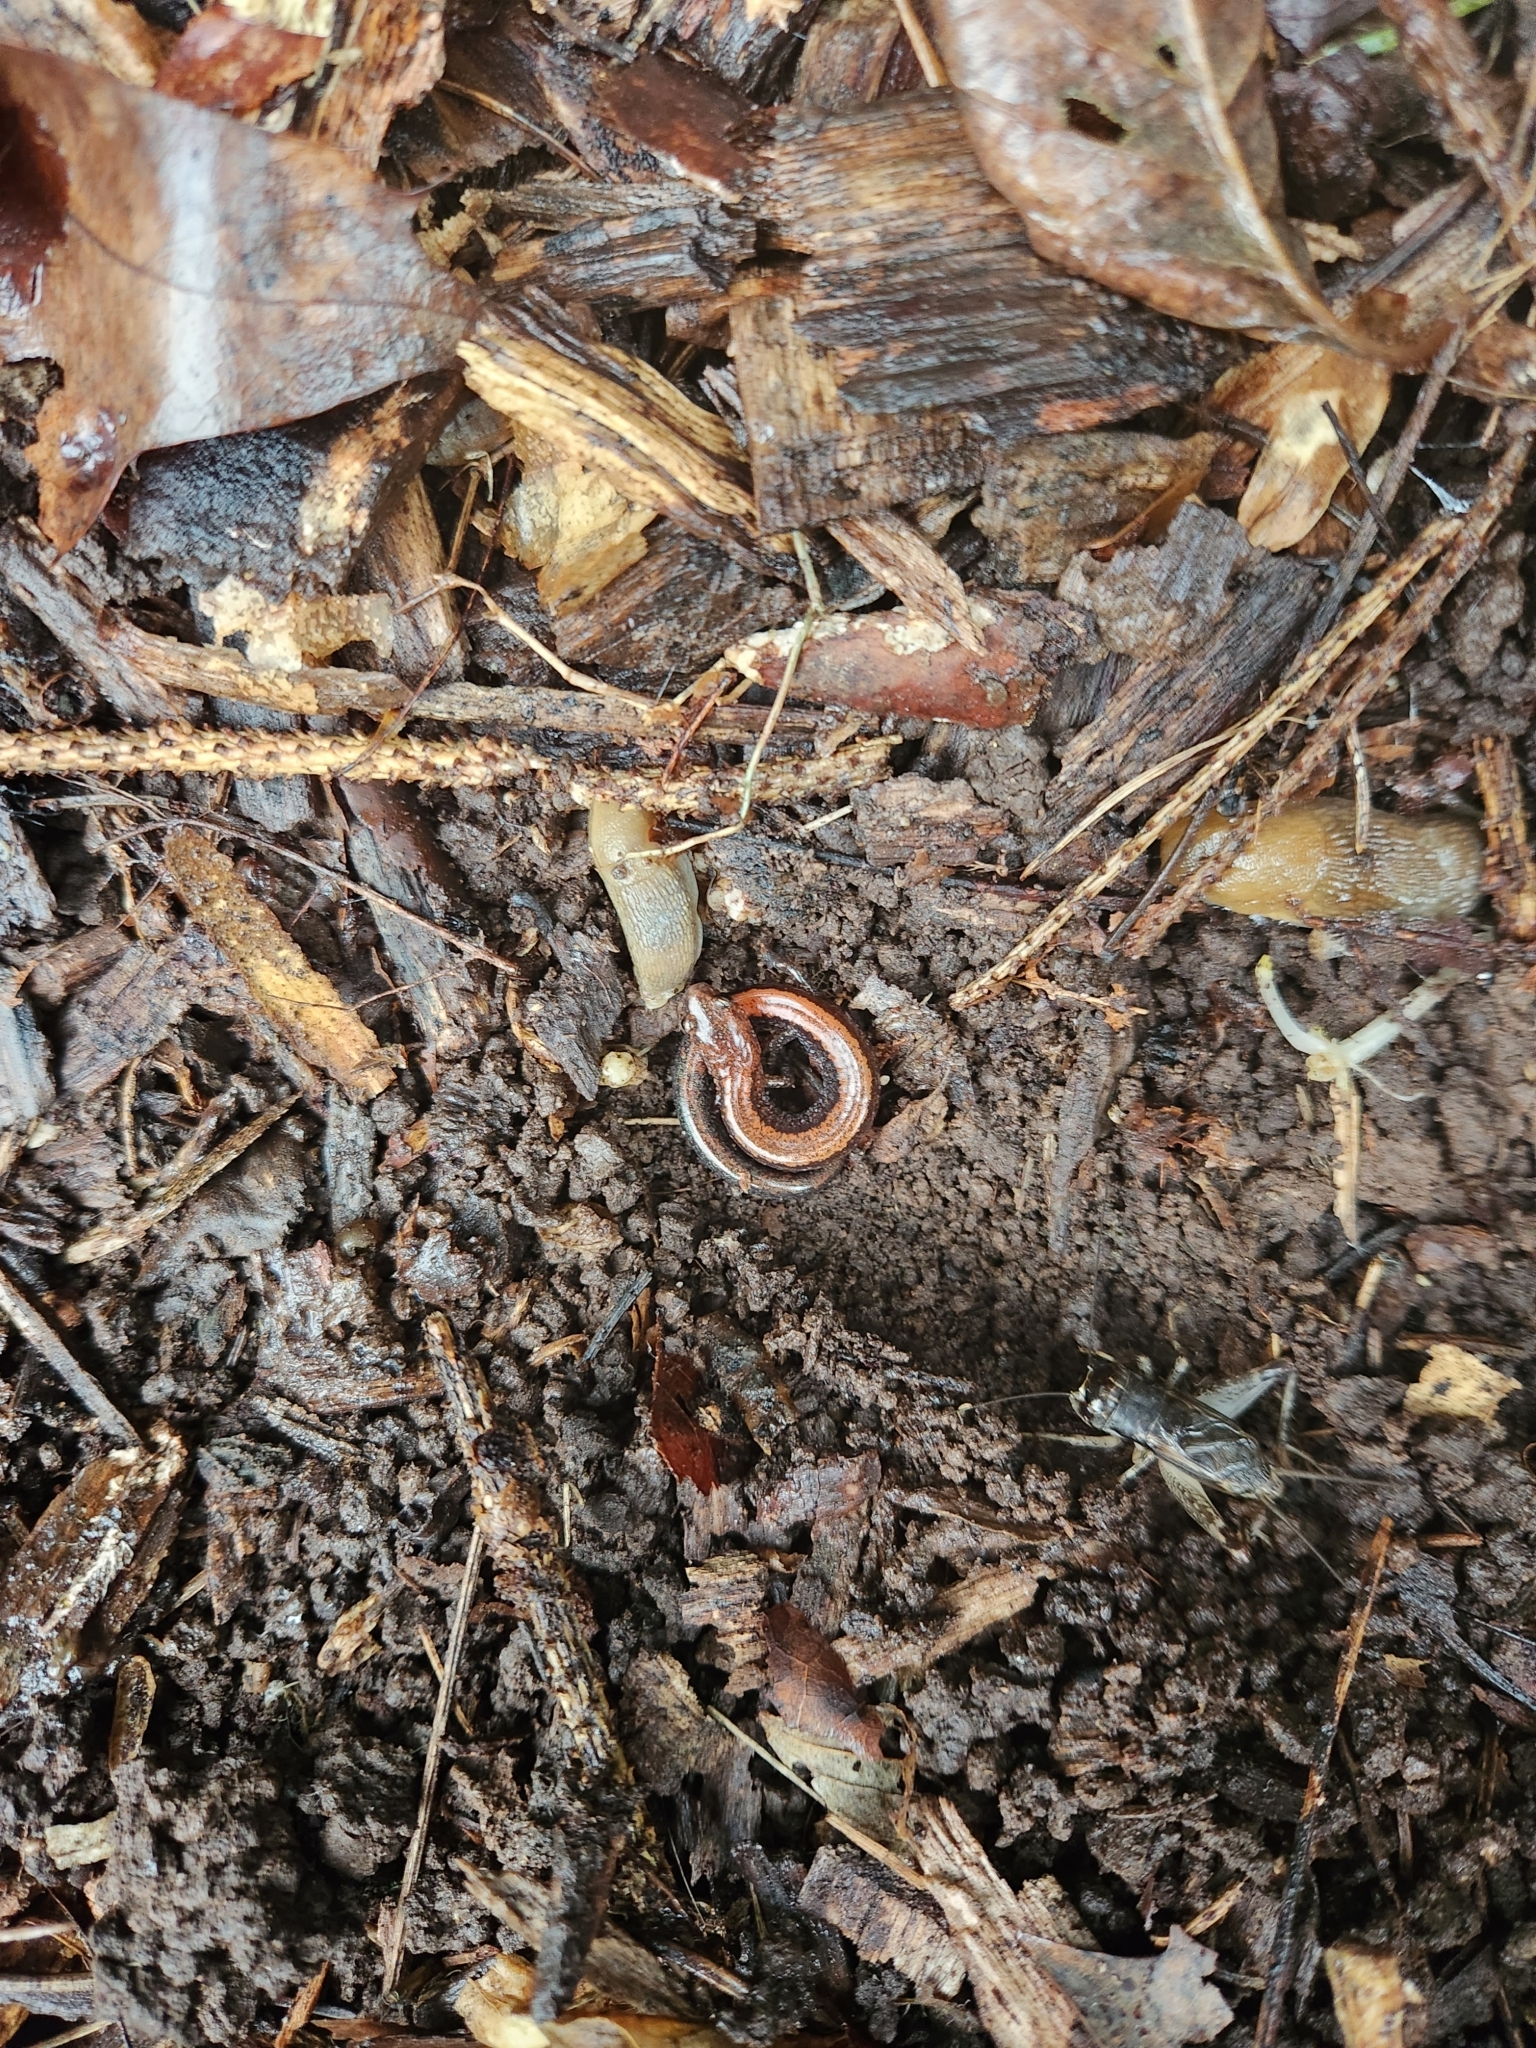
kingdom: Animalia
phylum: Chordata
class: Amphibia
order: Caudata
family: Plethodontidae
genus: Plethodon
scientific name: Plethodon cinereus
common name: Redback salamander
